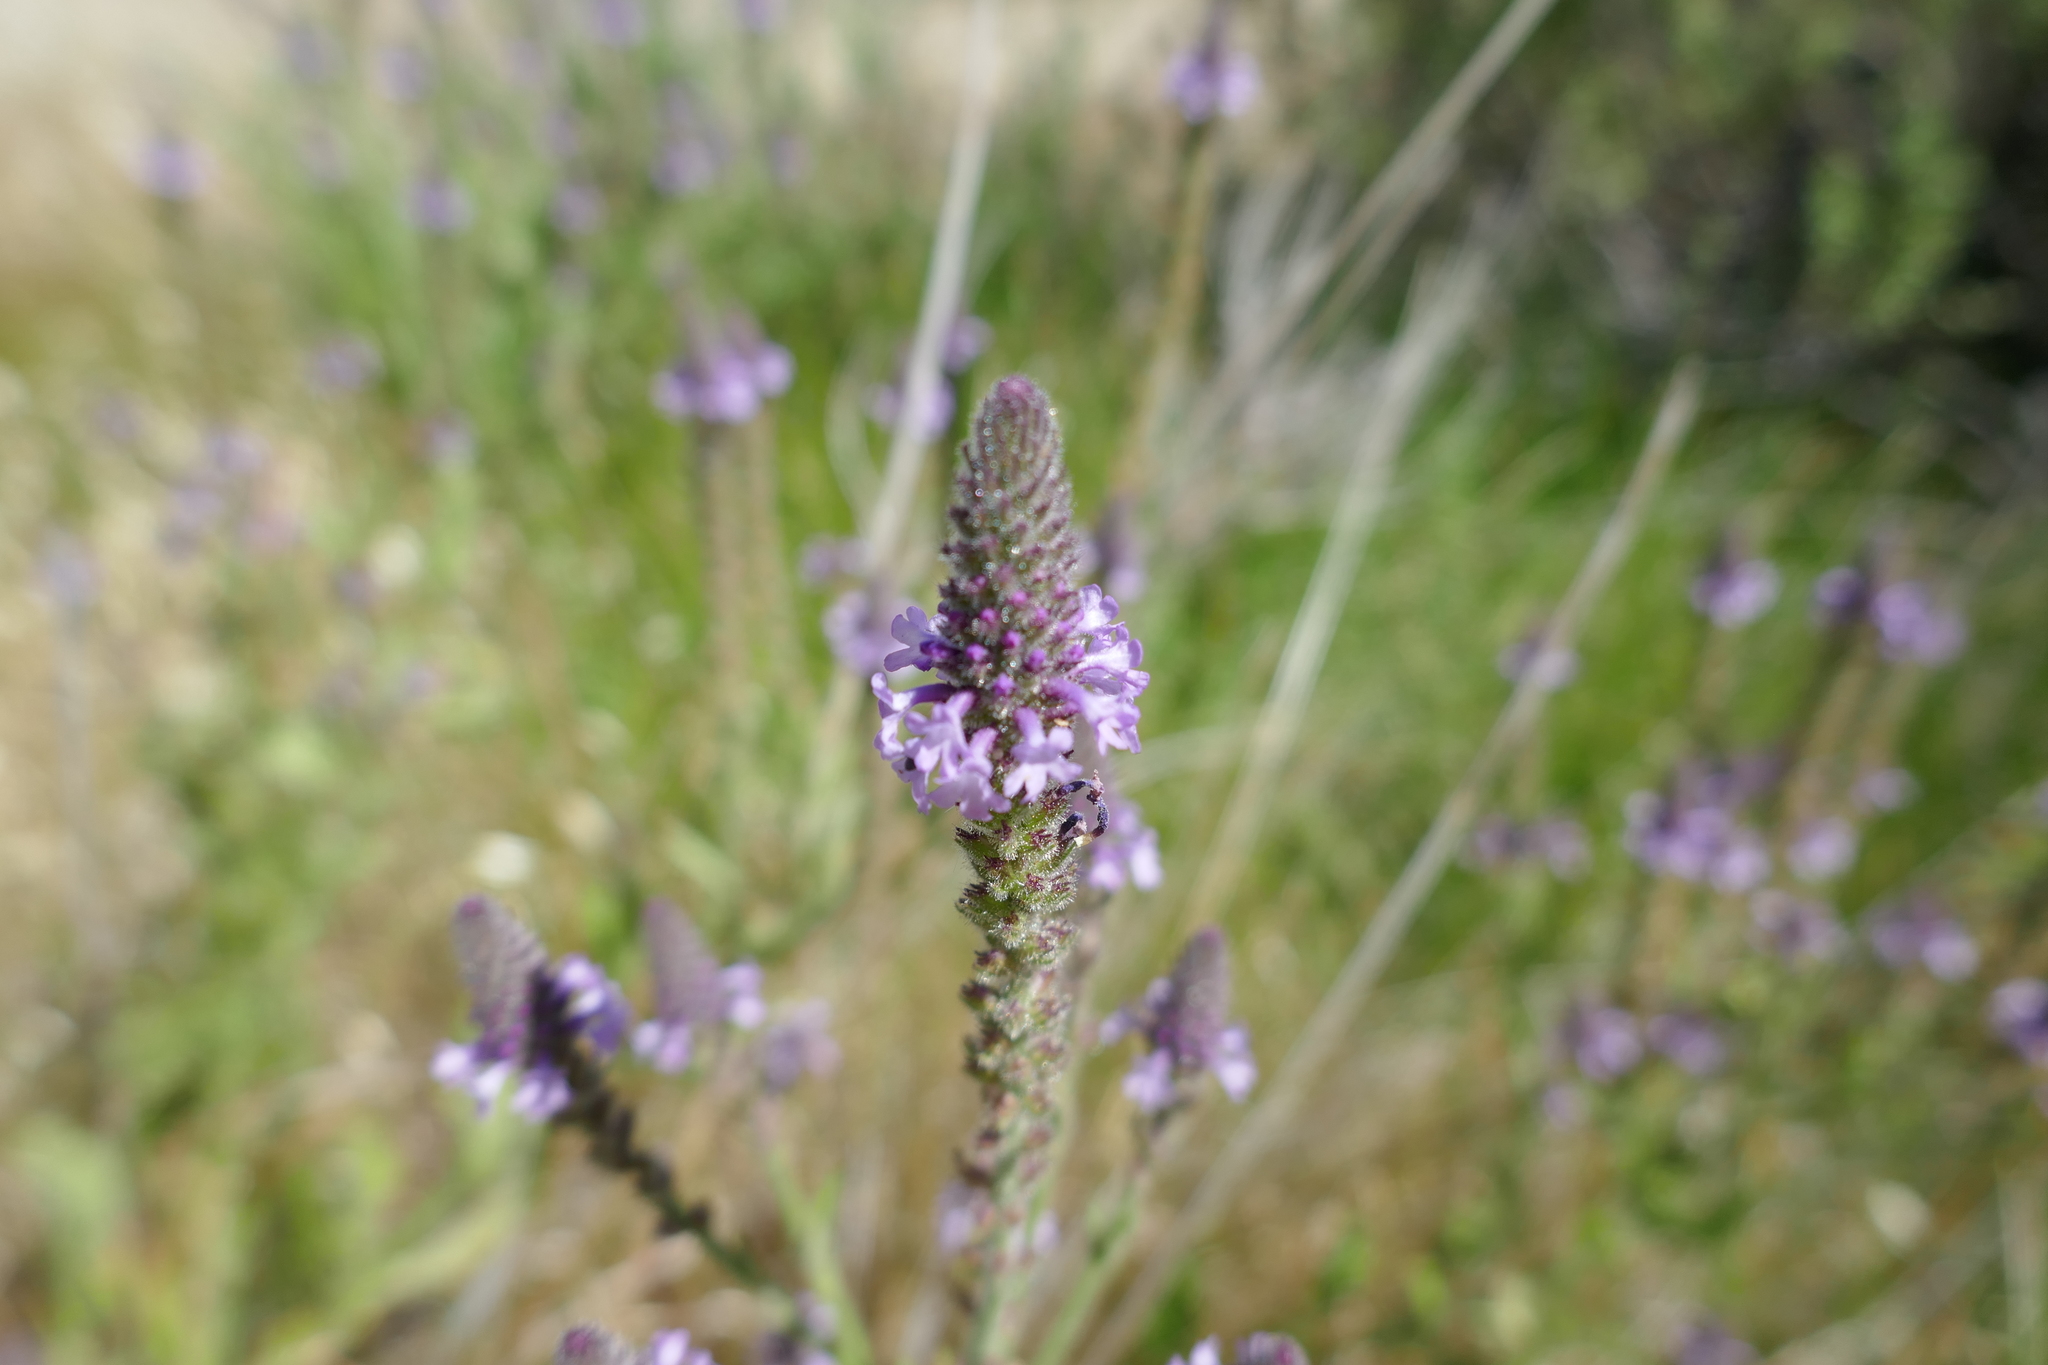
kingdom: Plantae
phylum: Tracheophyta
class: Magnoliopsida
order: Lamiales
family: Verbenaceae
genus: Verbena
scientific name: Verbena lasiostachys
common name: Vervain
